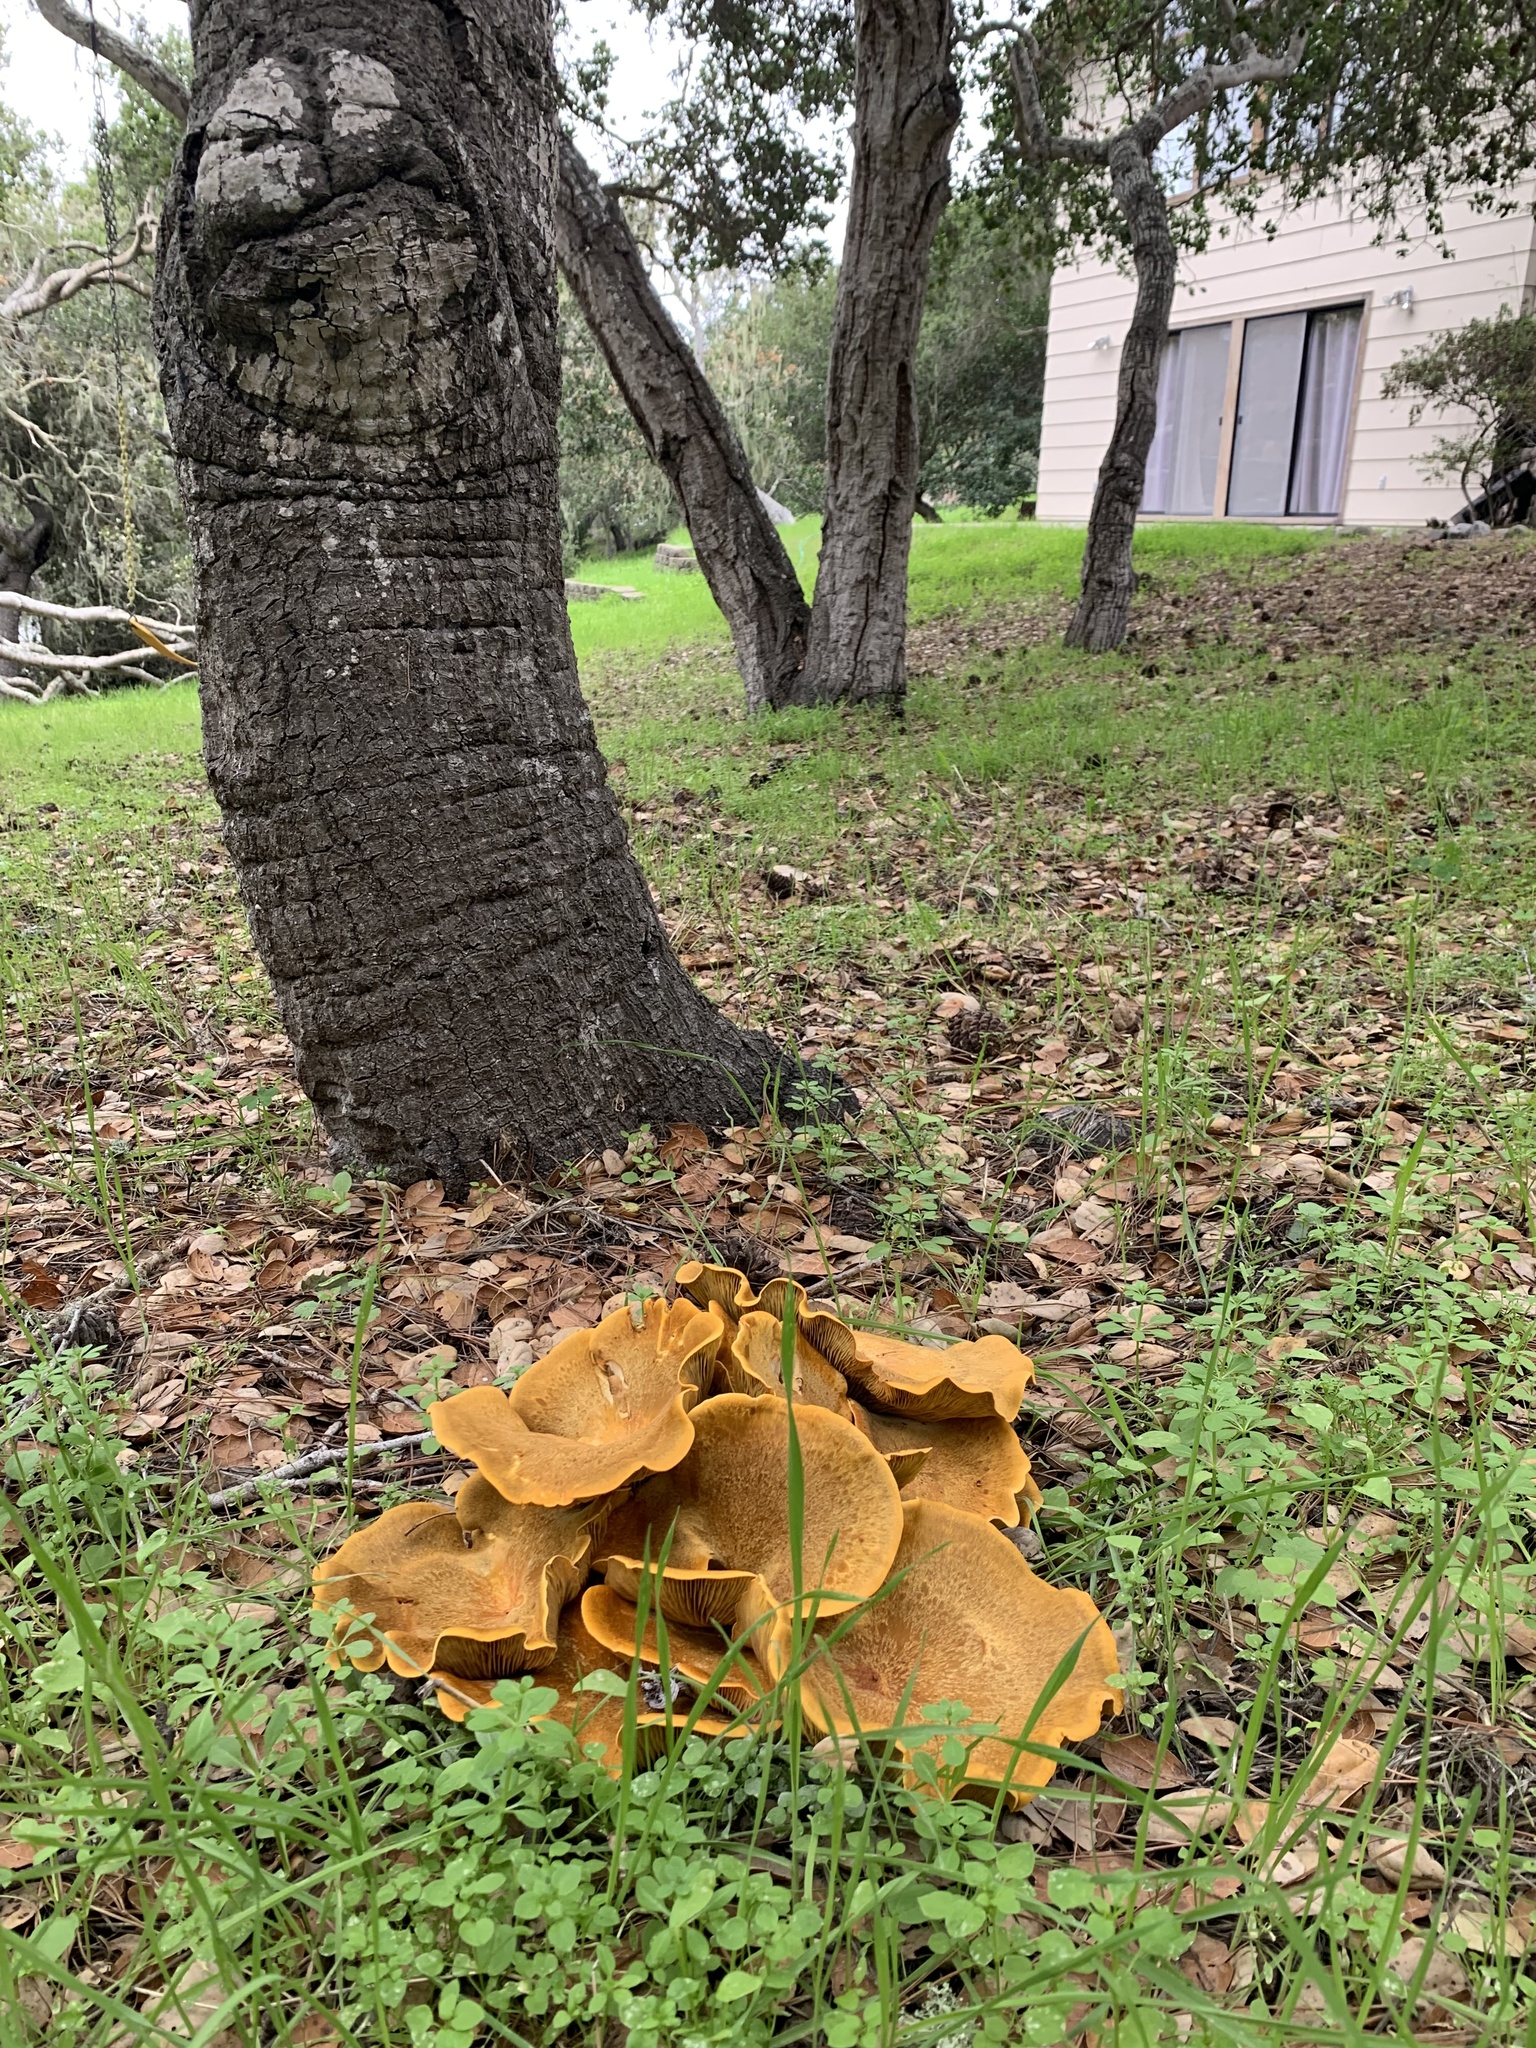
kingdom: Fungi
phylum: Basidiomycota
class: Agaricomycetes
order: Agaricales
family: Omphalotaceae
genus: Omphalotus
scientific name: Omphalotus olivascens
